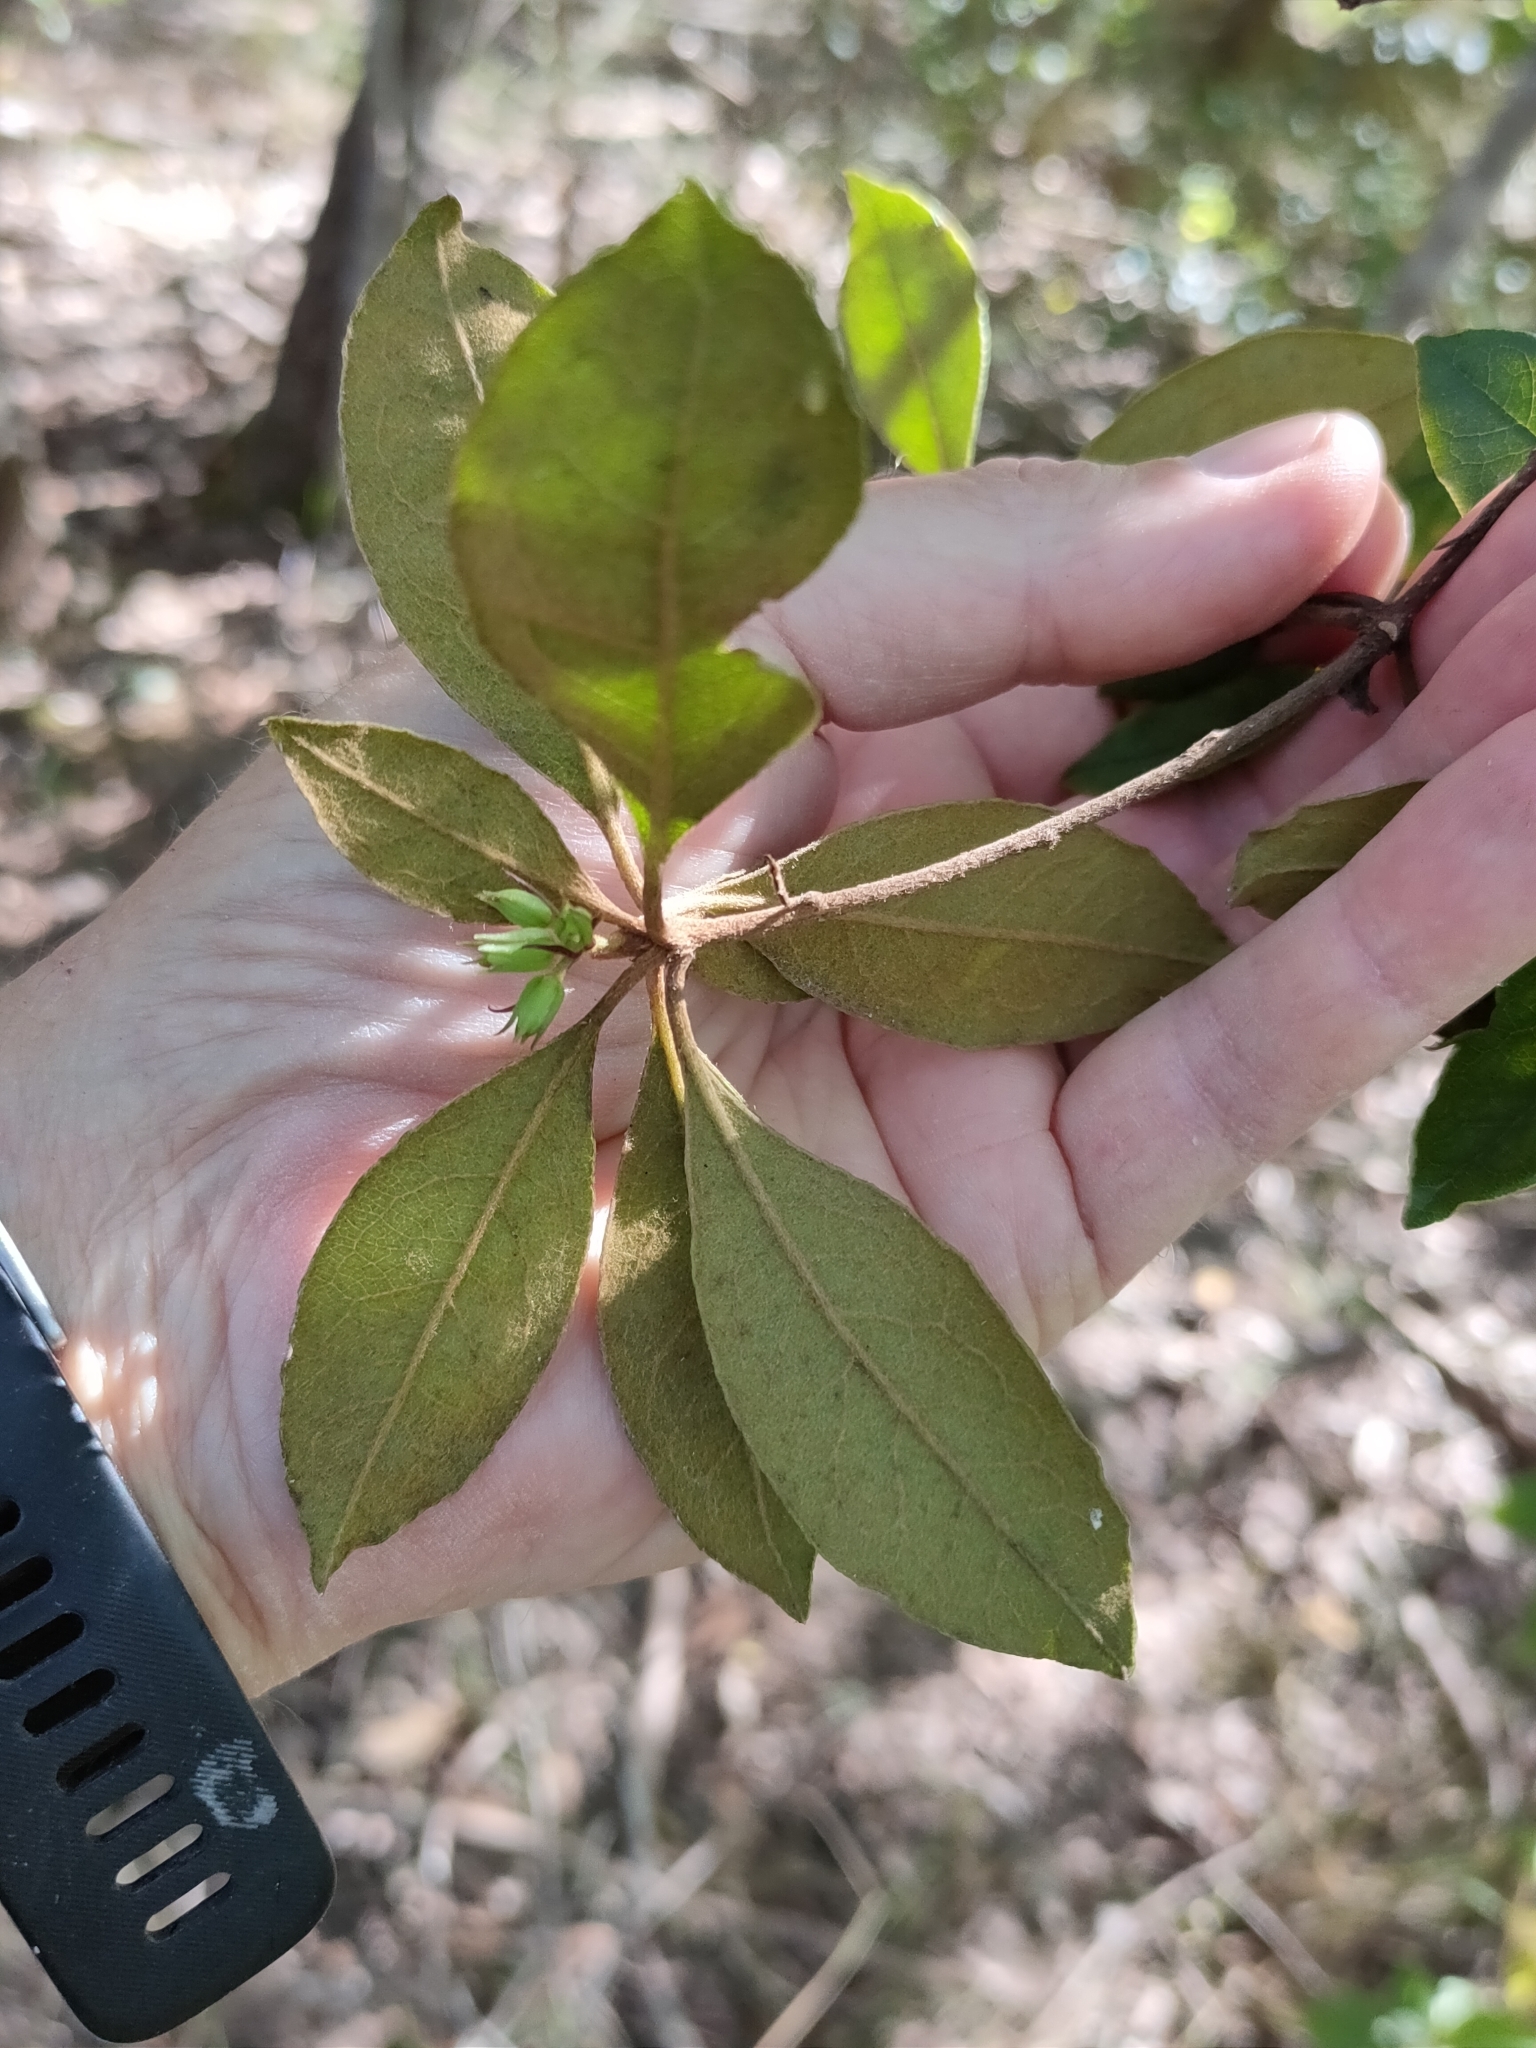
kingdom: Plantae
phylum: Tracheophyta
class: Magnoliopsida
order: Apiales
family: Pittosporaceae
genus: Pittosporum
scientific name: Pittosporum revolutum
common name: Brisbane-laurel
